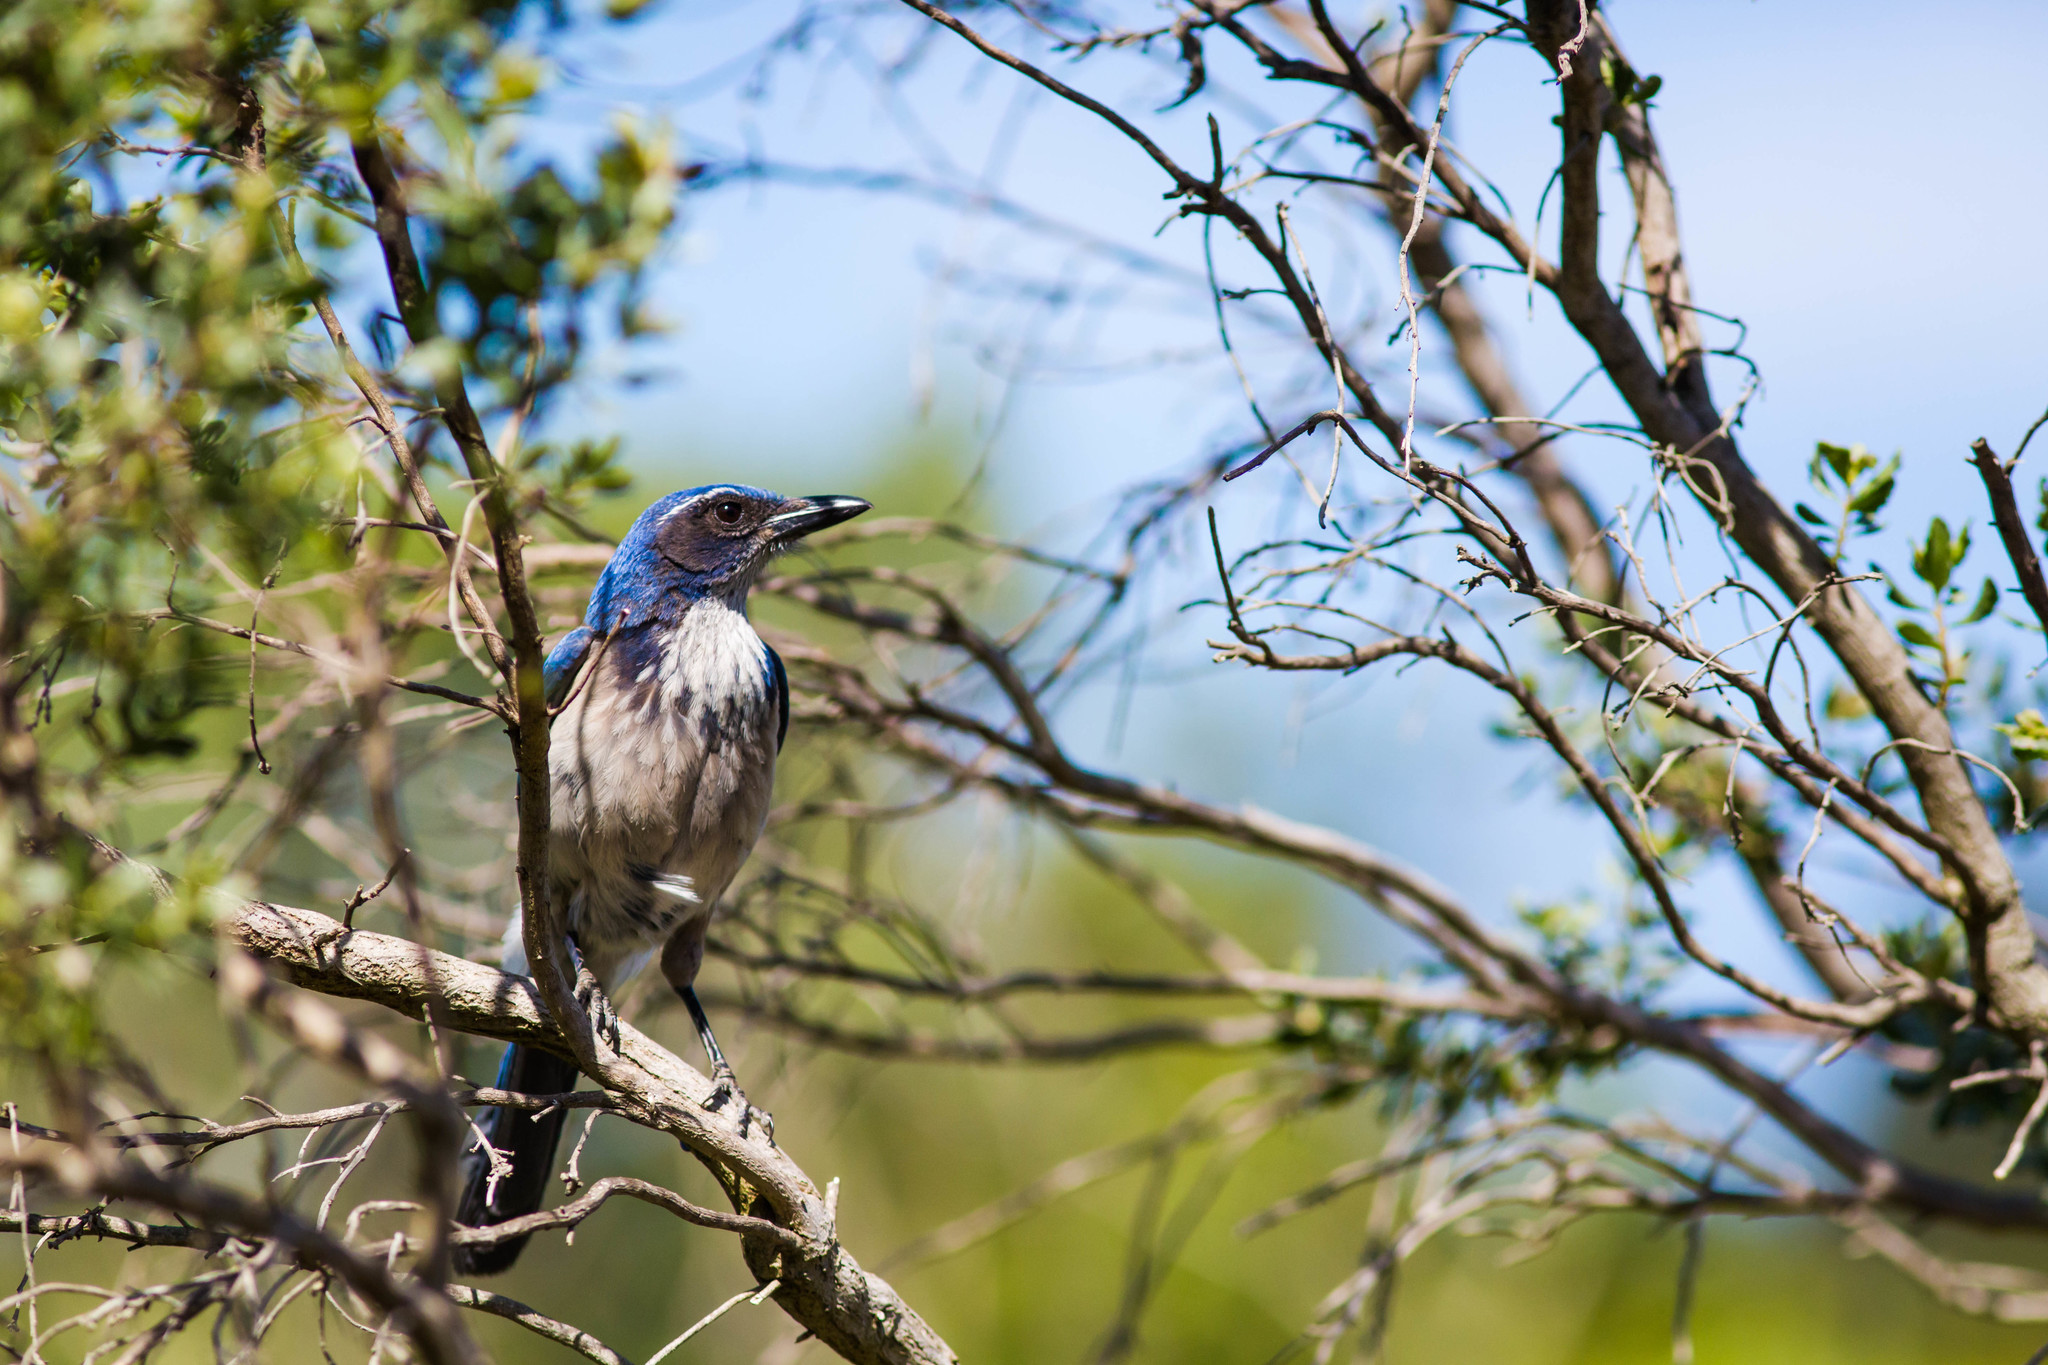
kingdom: Animalia
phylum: Chordata
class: Aves
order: Passeriformes
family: Corvidae
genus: Aphelocoma
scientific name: Aphelocoma californica
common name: California scrub-jay
